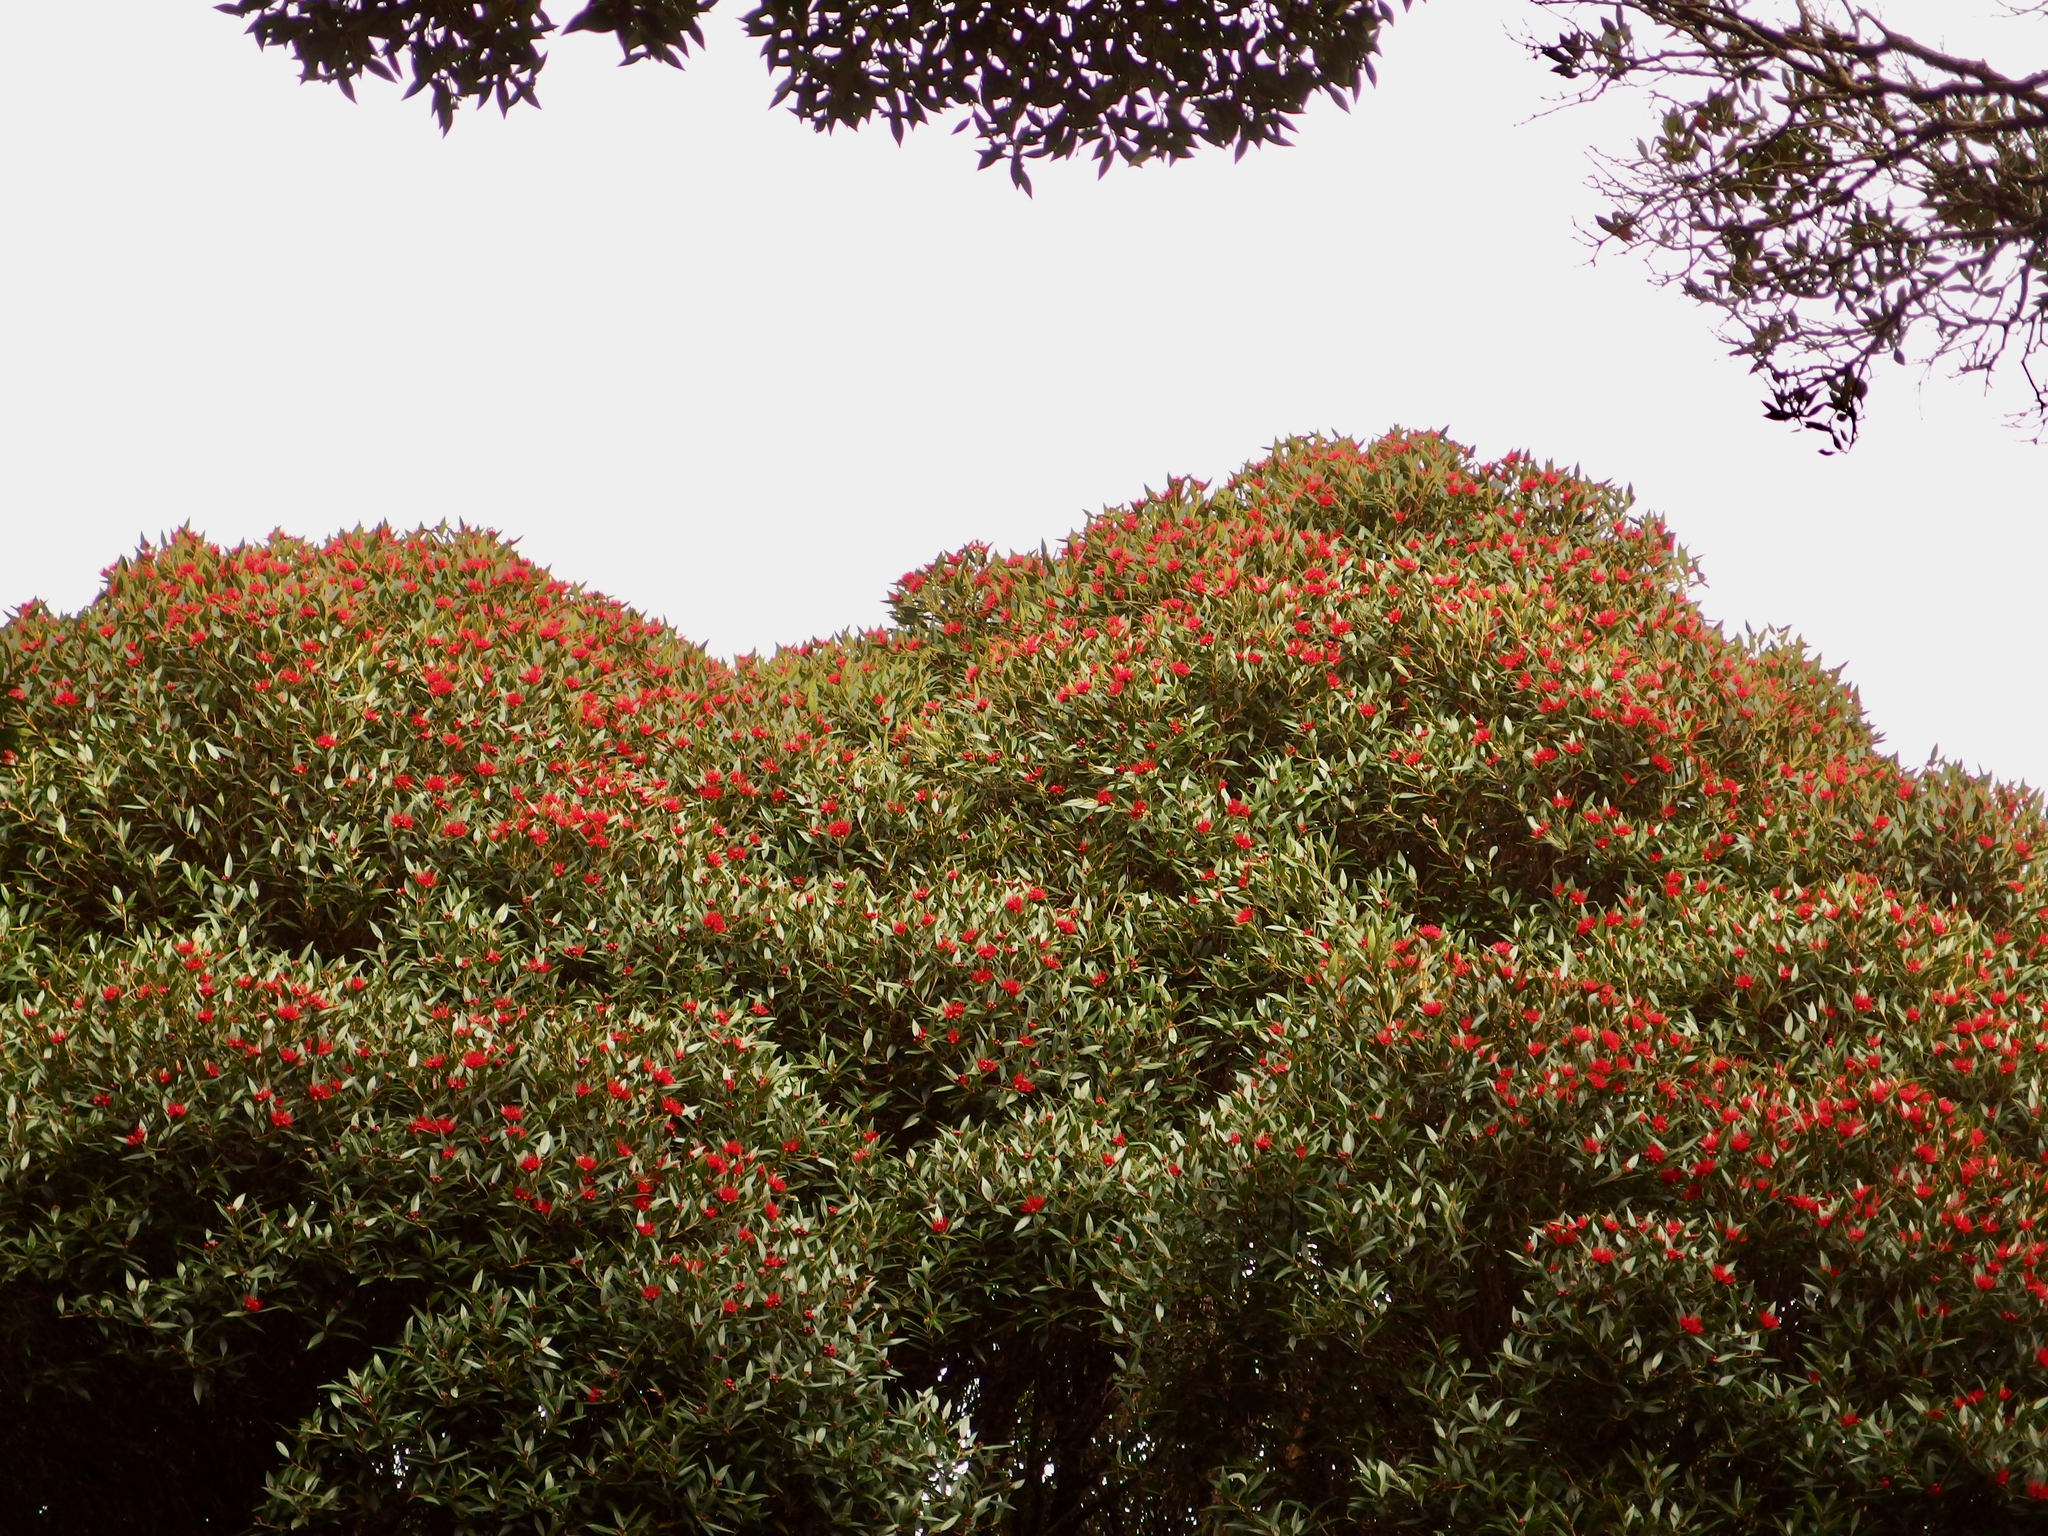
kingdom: Plantae
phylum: Tracheophyta
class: Magnoliopsida
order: Myrtales
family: Myrtaceae
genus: Metrosideros
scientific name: Metrosideros umbellata
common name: Southern rata
